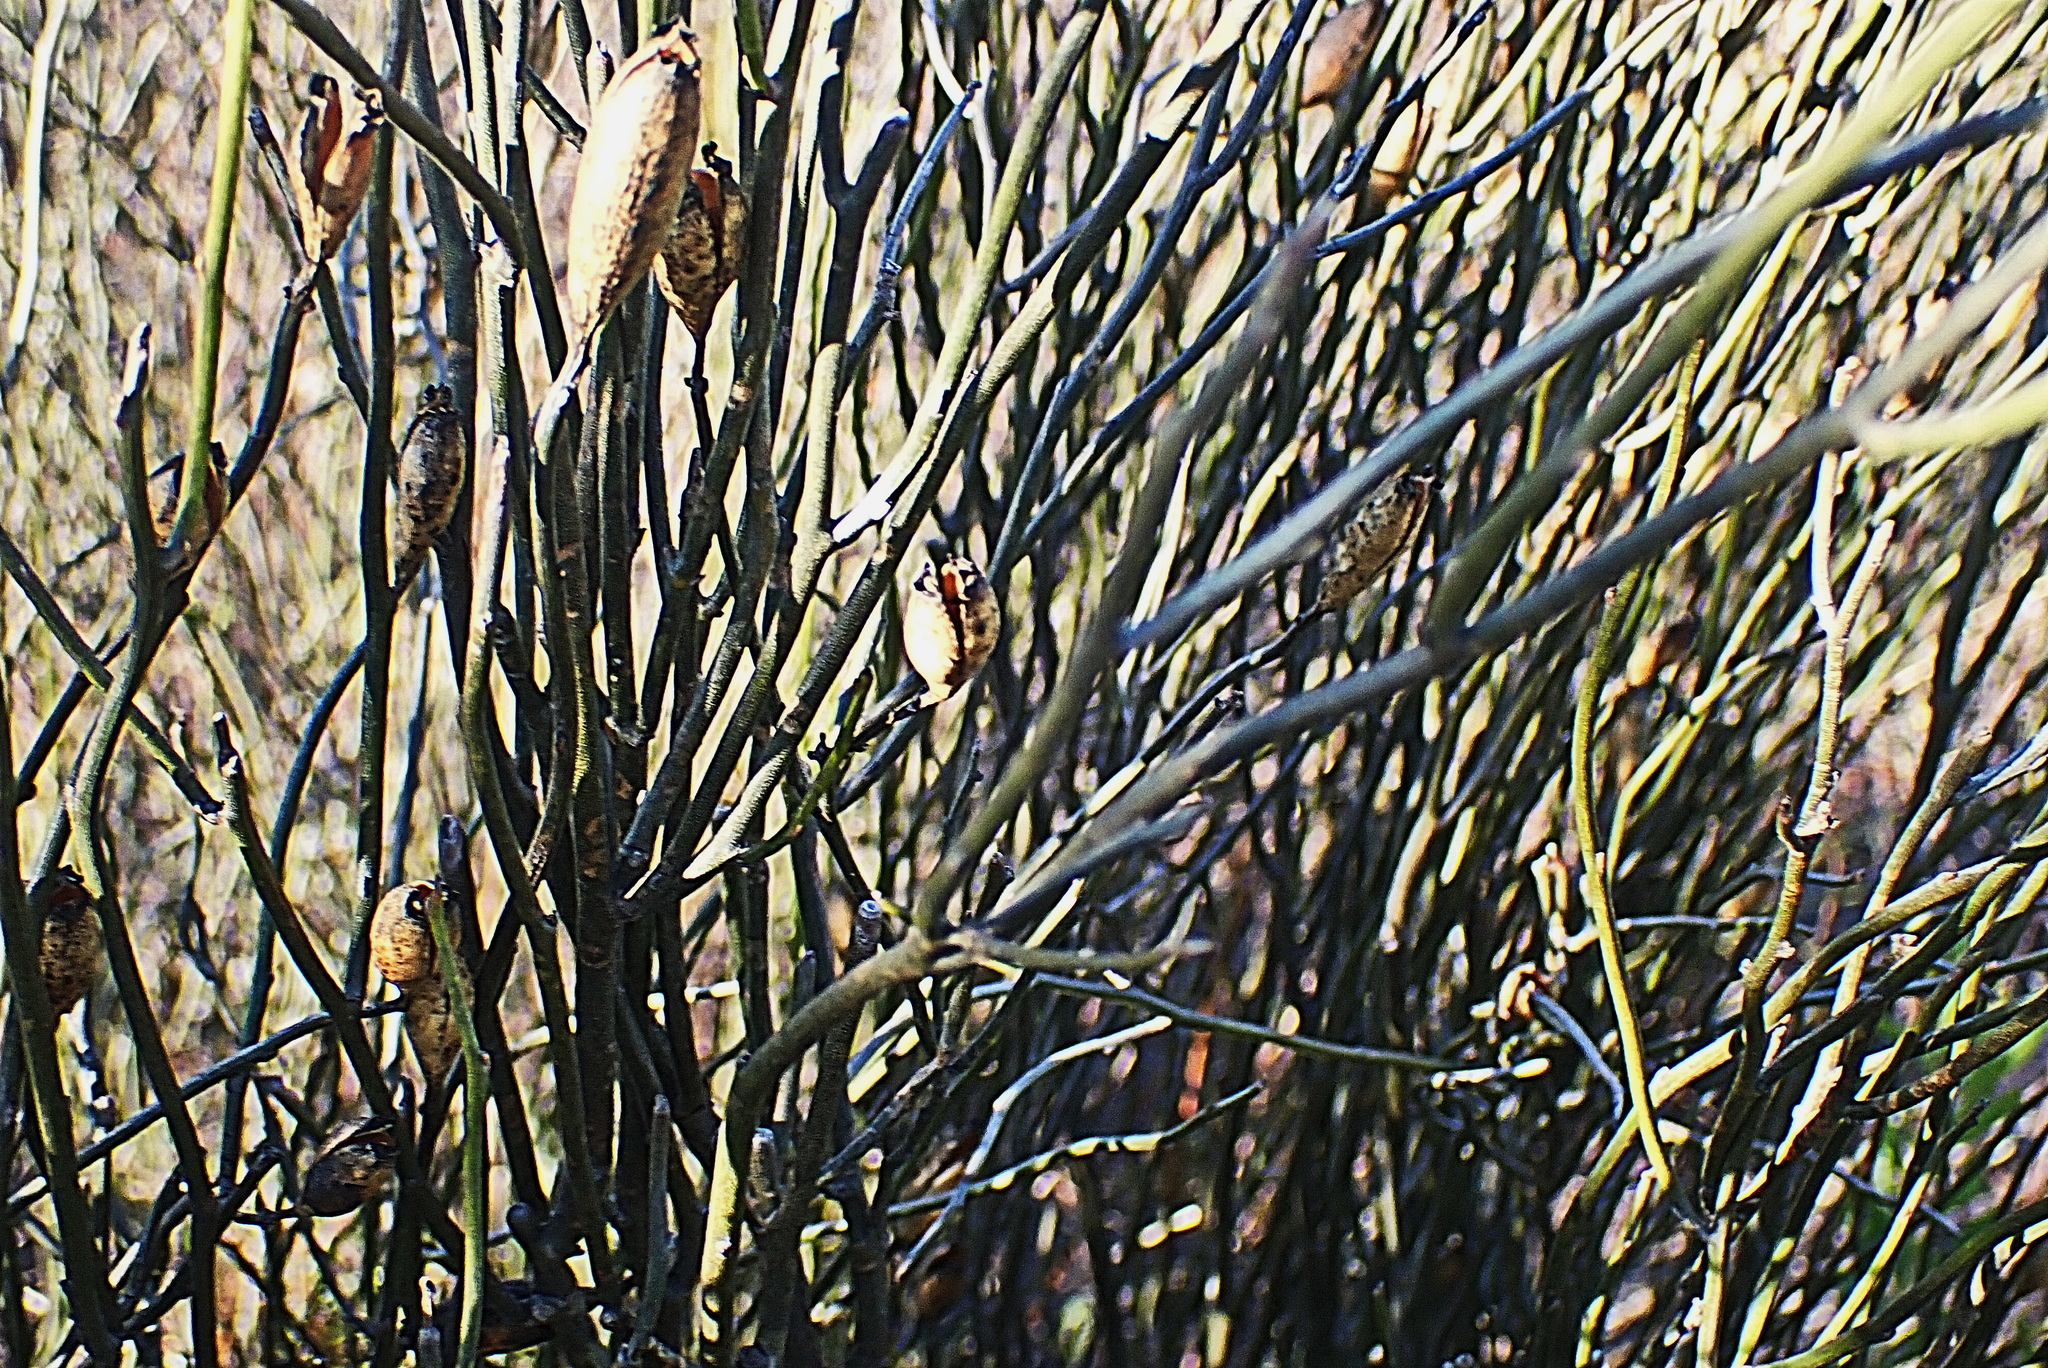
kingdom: Plantae
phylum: Tracheophyta
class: Magnoliopsida
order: Solanales
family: Montiniaceae
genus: Montinia
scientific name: Montinia caryophyllacea
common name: Wild clove-bush
